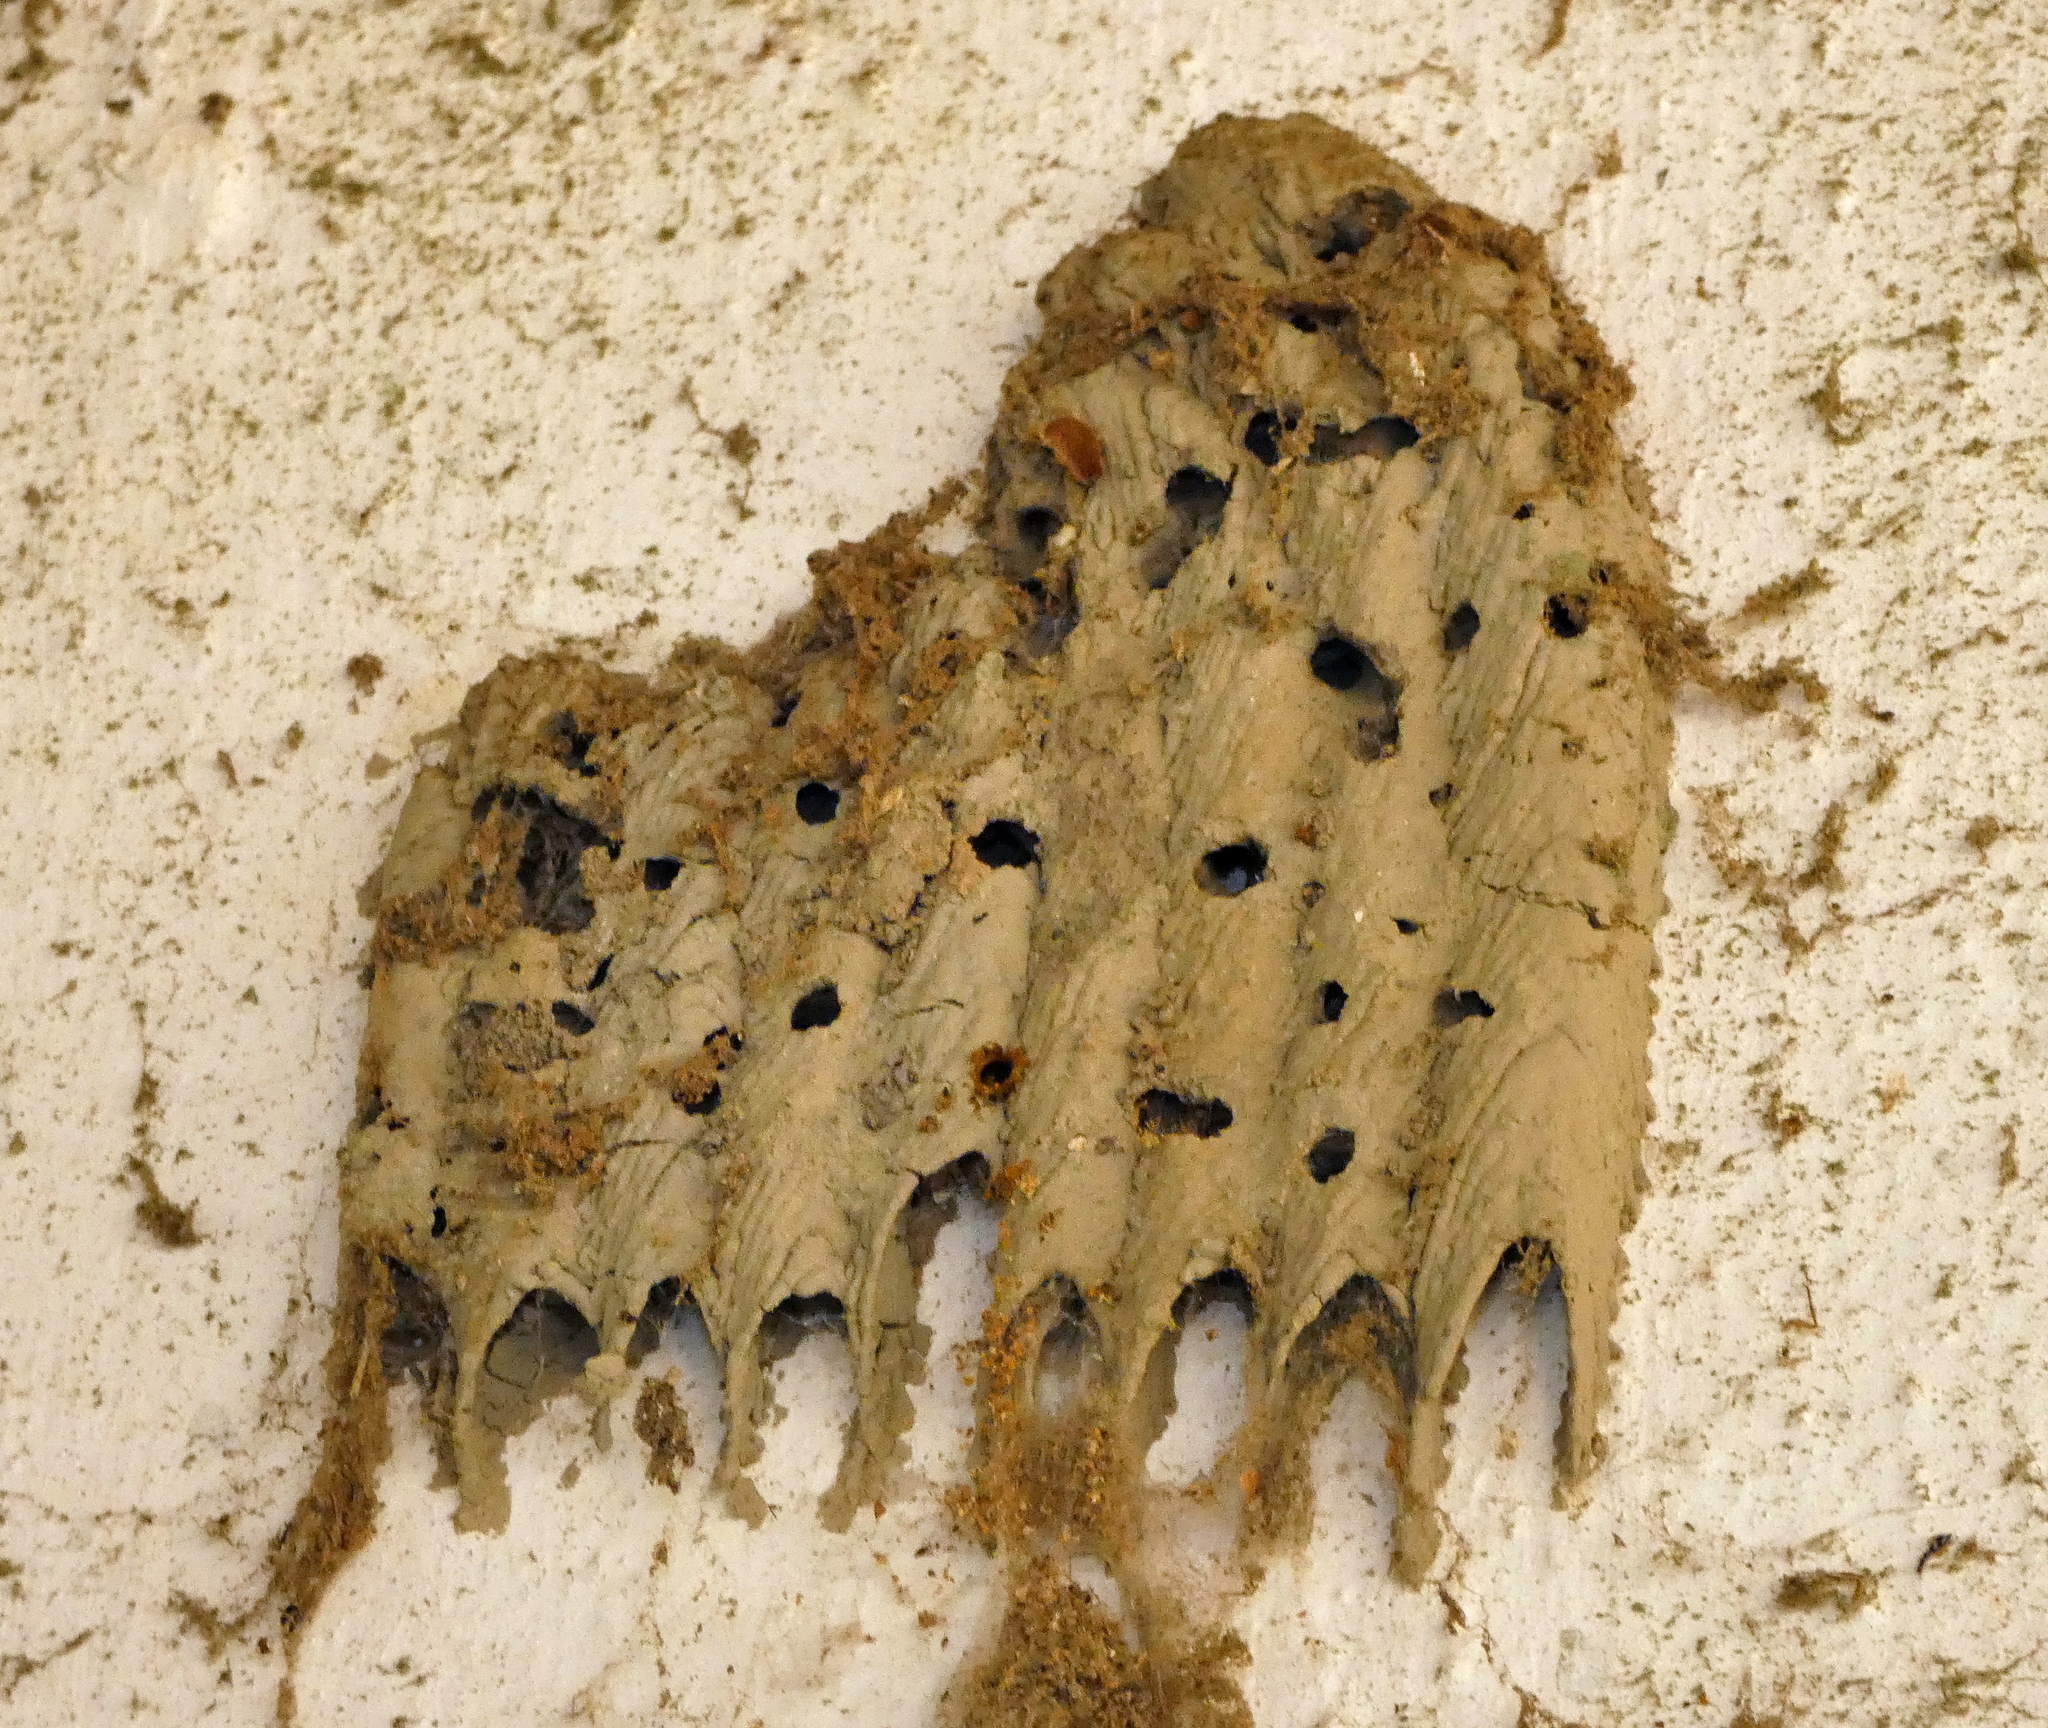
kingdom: Animalia
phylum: Arthropoda
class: Insecta
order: Hymenoptera
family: Crabronidae
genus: Trypoxylon
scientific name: Trypoxylon albitarse
